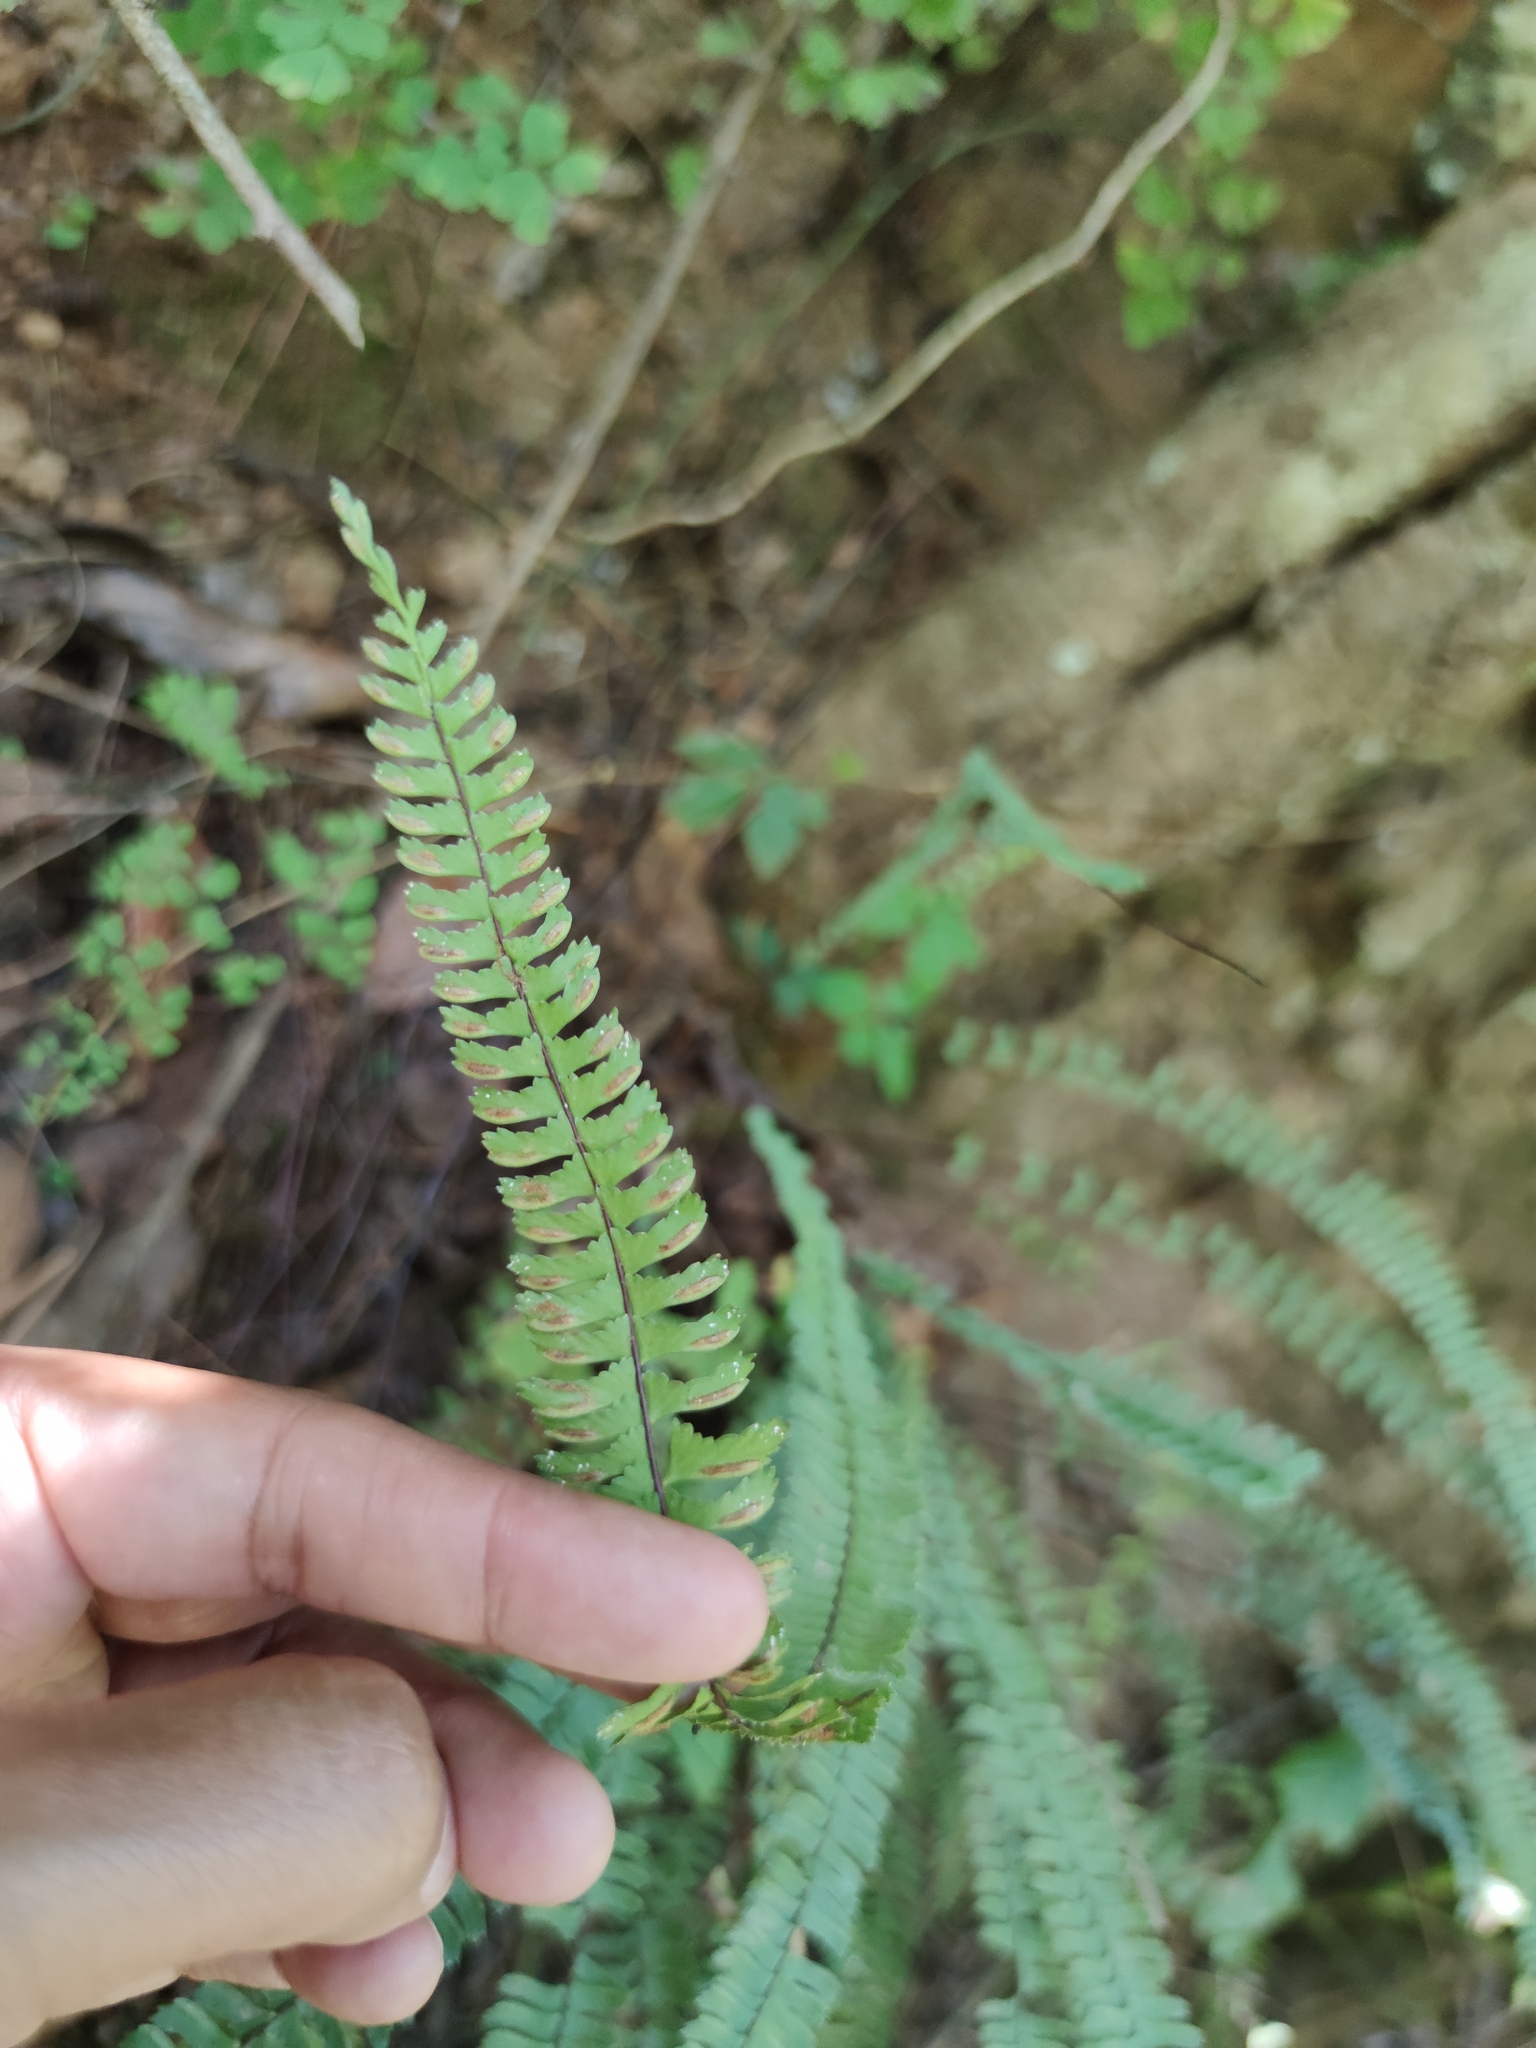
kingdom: Plantae
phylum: Tracheophyta
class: Polypodiopsida
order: Polypodiales
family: Aspleniaceae
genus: Asplenium
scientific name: Asplenium monanthes
